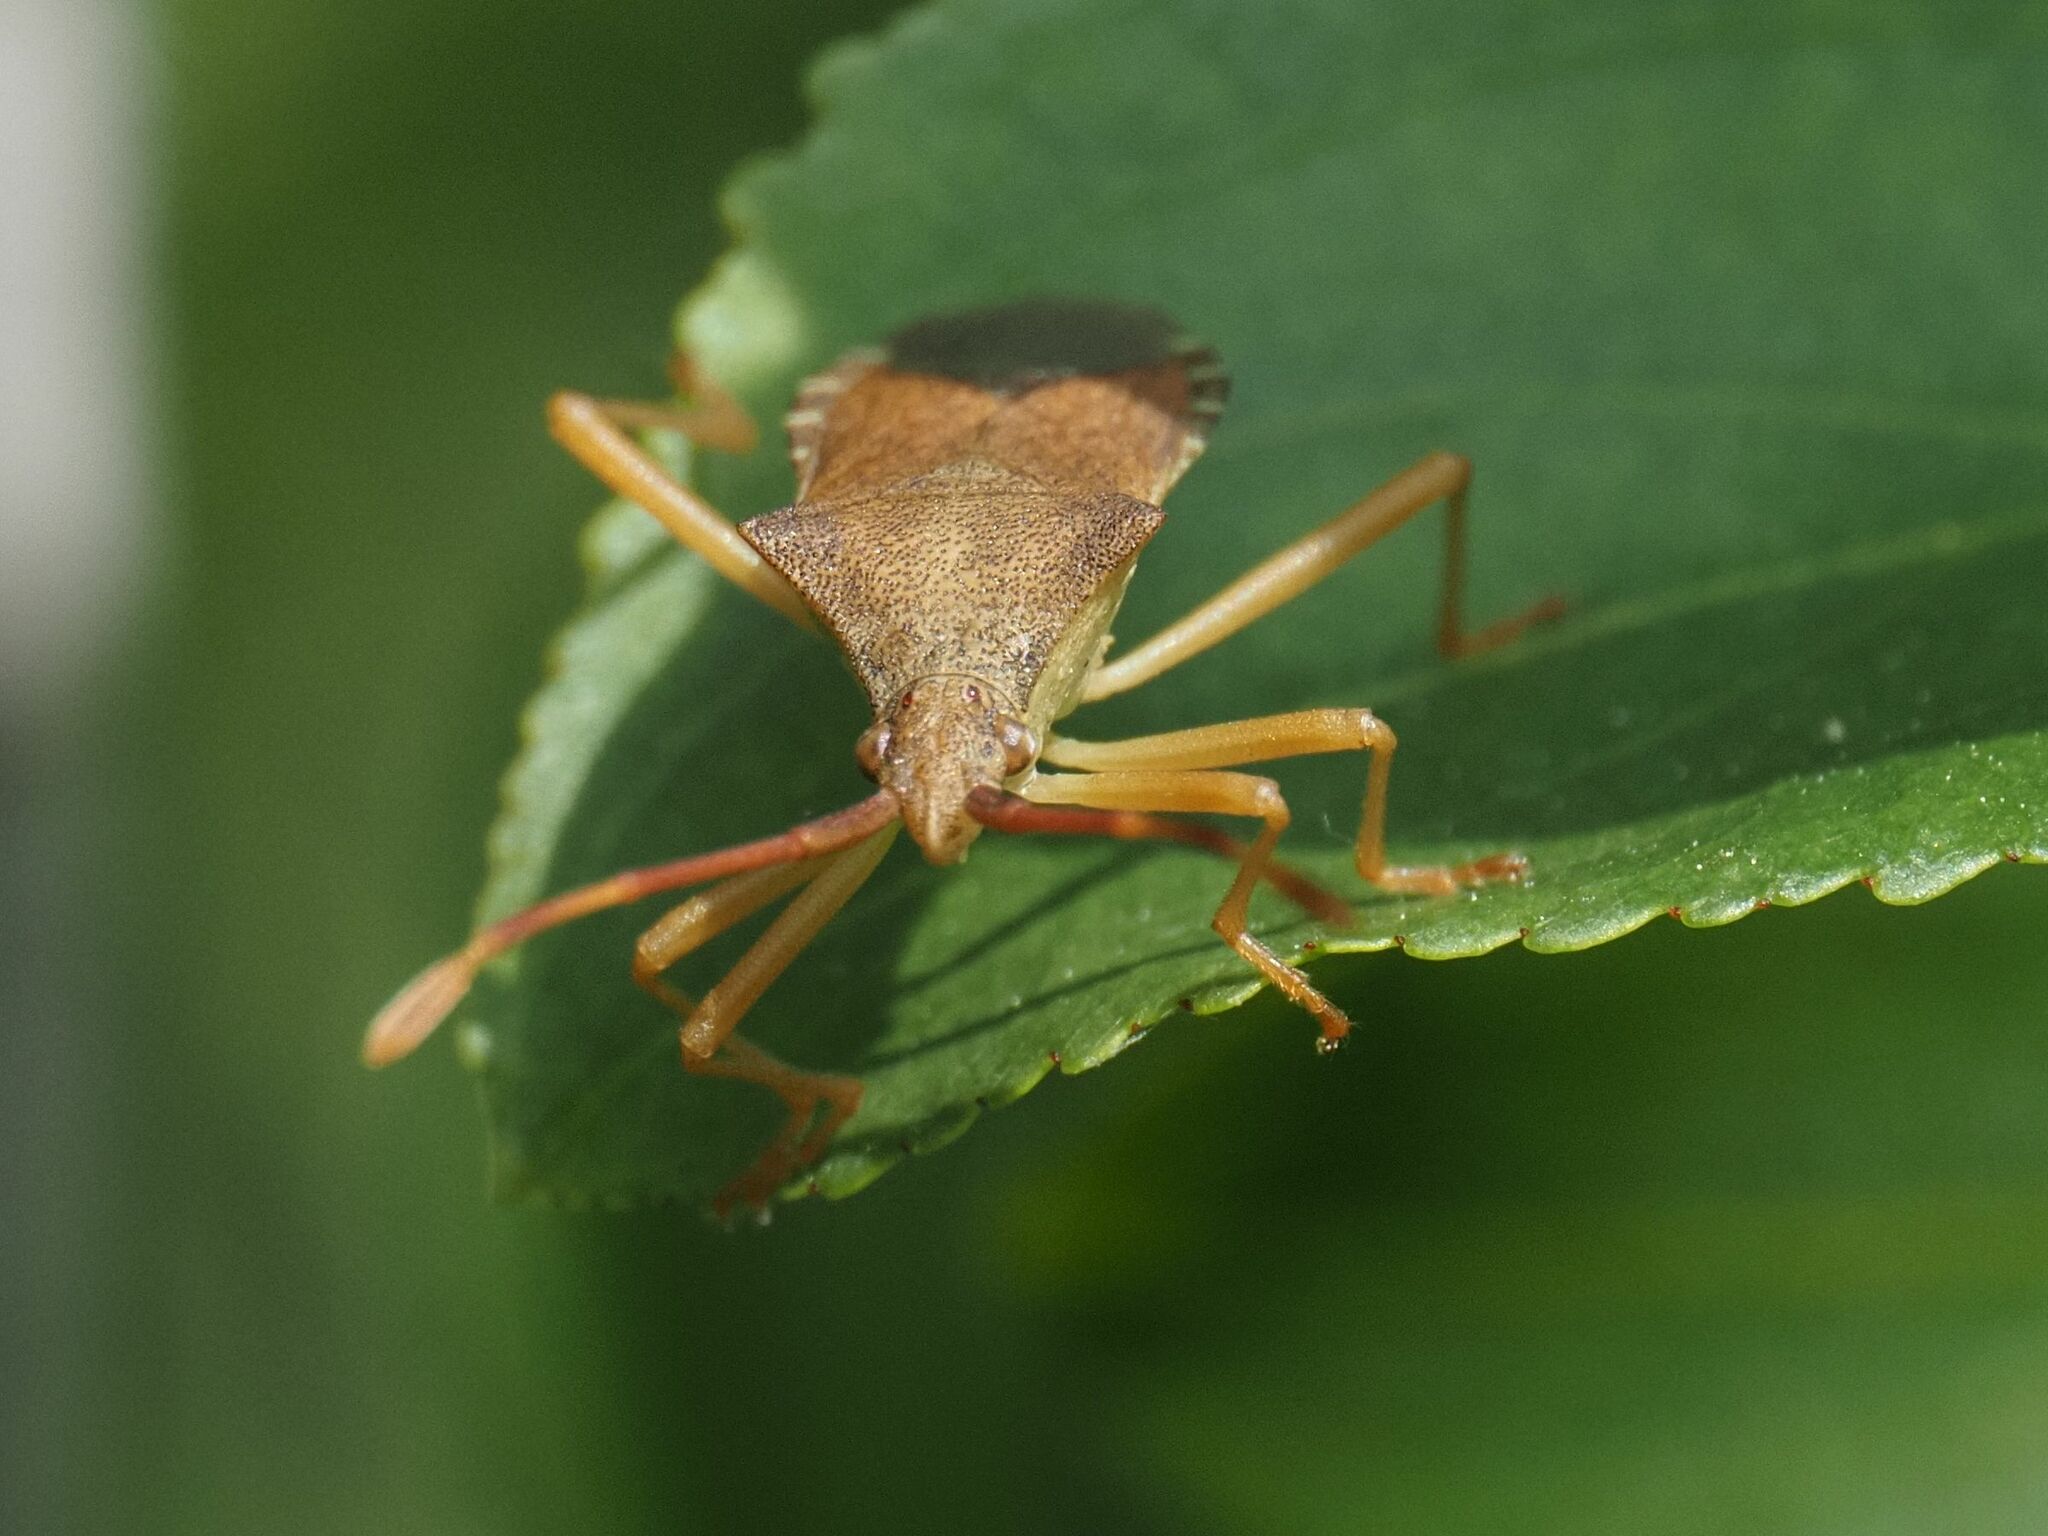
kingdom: Animalia
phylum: Arthropoda
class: Insecta
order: Hemiptera
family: Coreidae
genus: Gonocerus
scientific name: Gonocerus acuteangulatus
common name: Box bug
